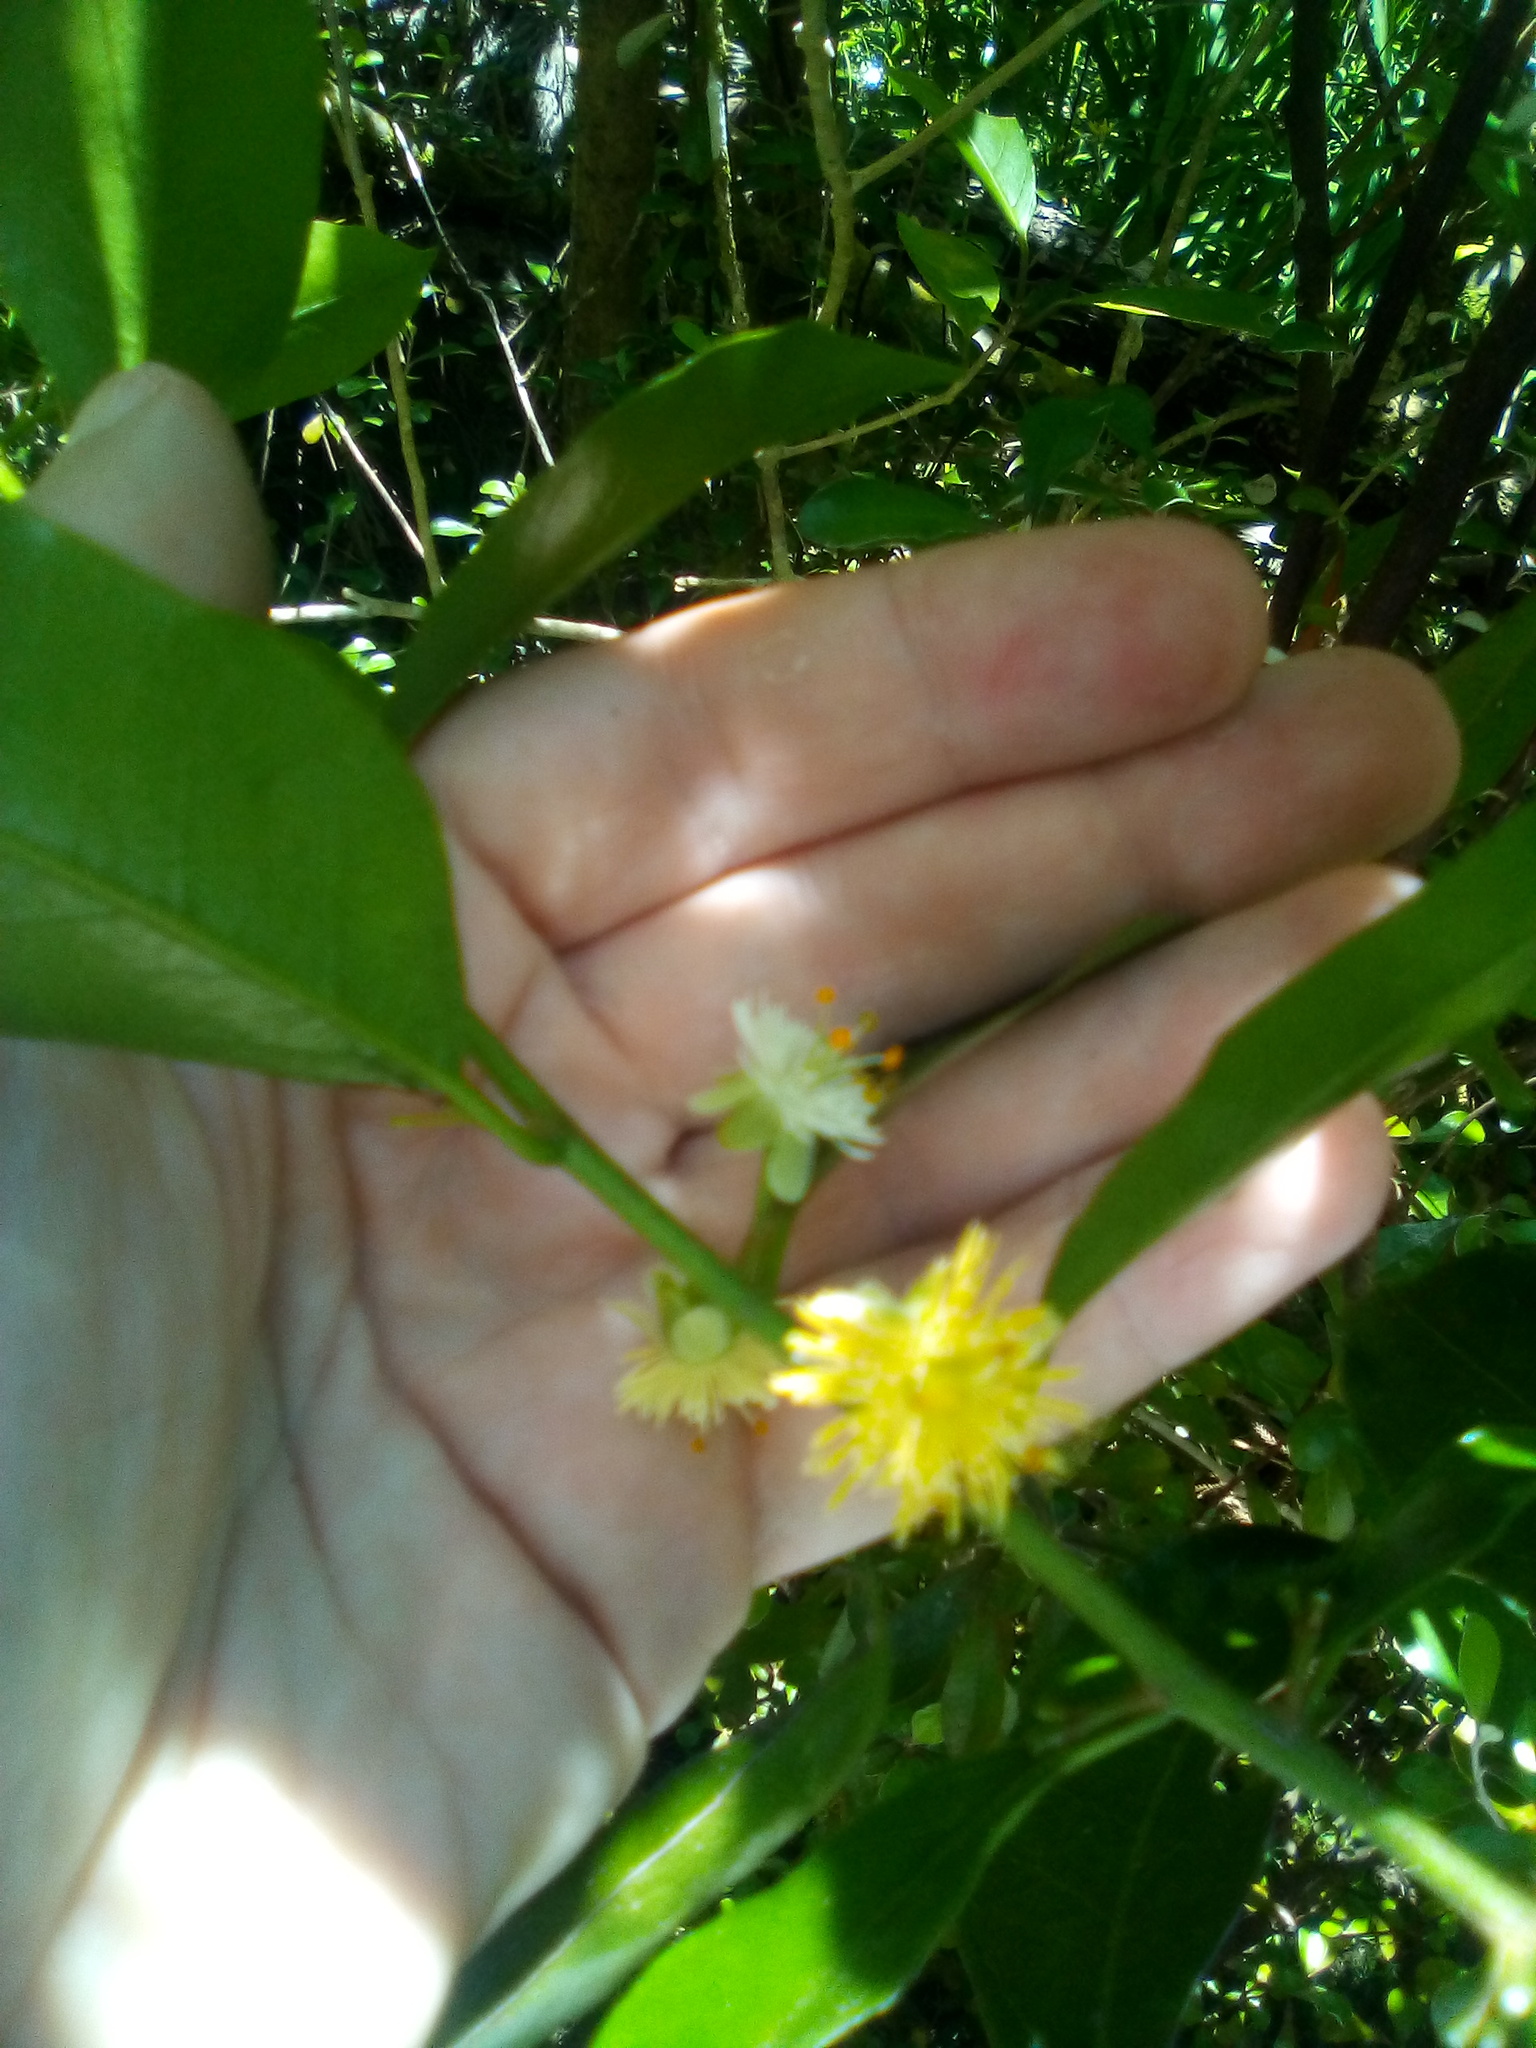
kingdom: Plantae
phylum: Tracheophyta
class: Magnoliopsida
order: Malpighiales
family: Passifloraceae
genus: Passiflora
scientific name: Passiflora tetrandra
